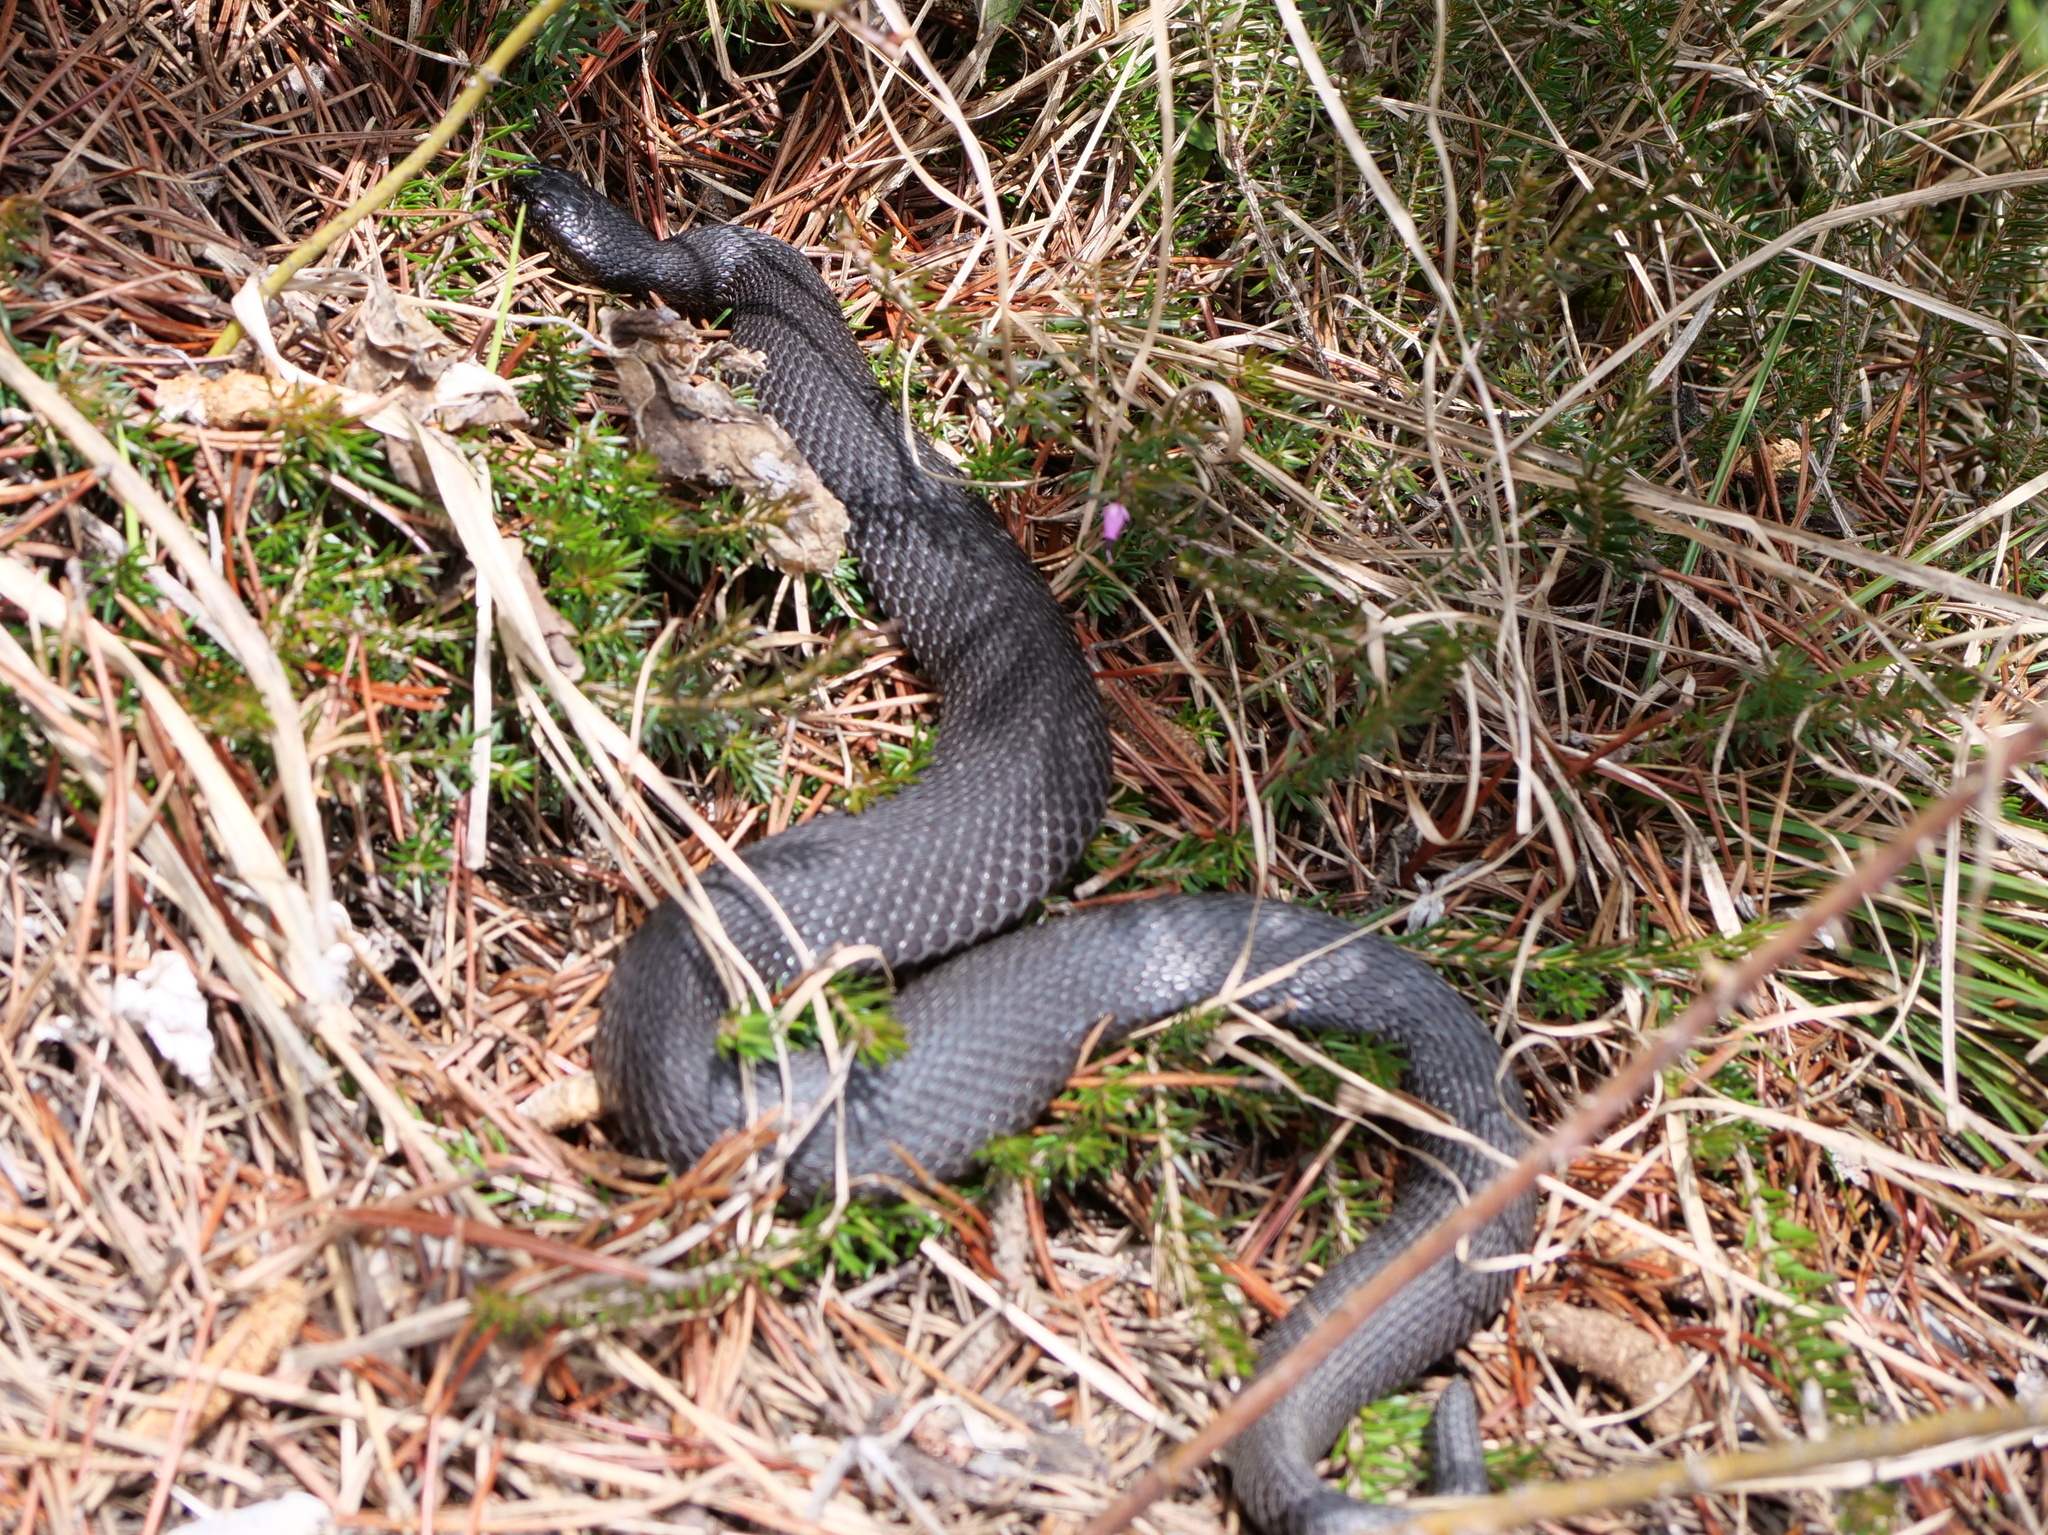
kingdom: Animalia
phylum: Chordata
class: Squamata
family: Viperidae
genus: Vipera
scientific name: Vipera berus
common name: Adder
